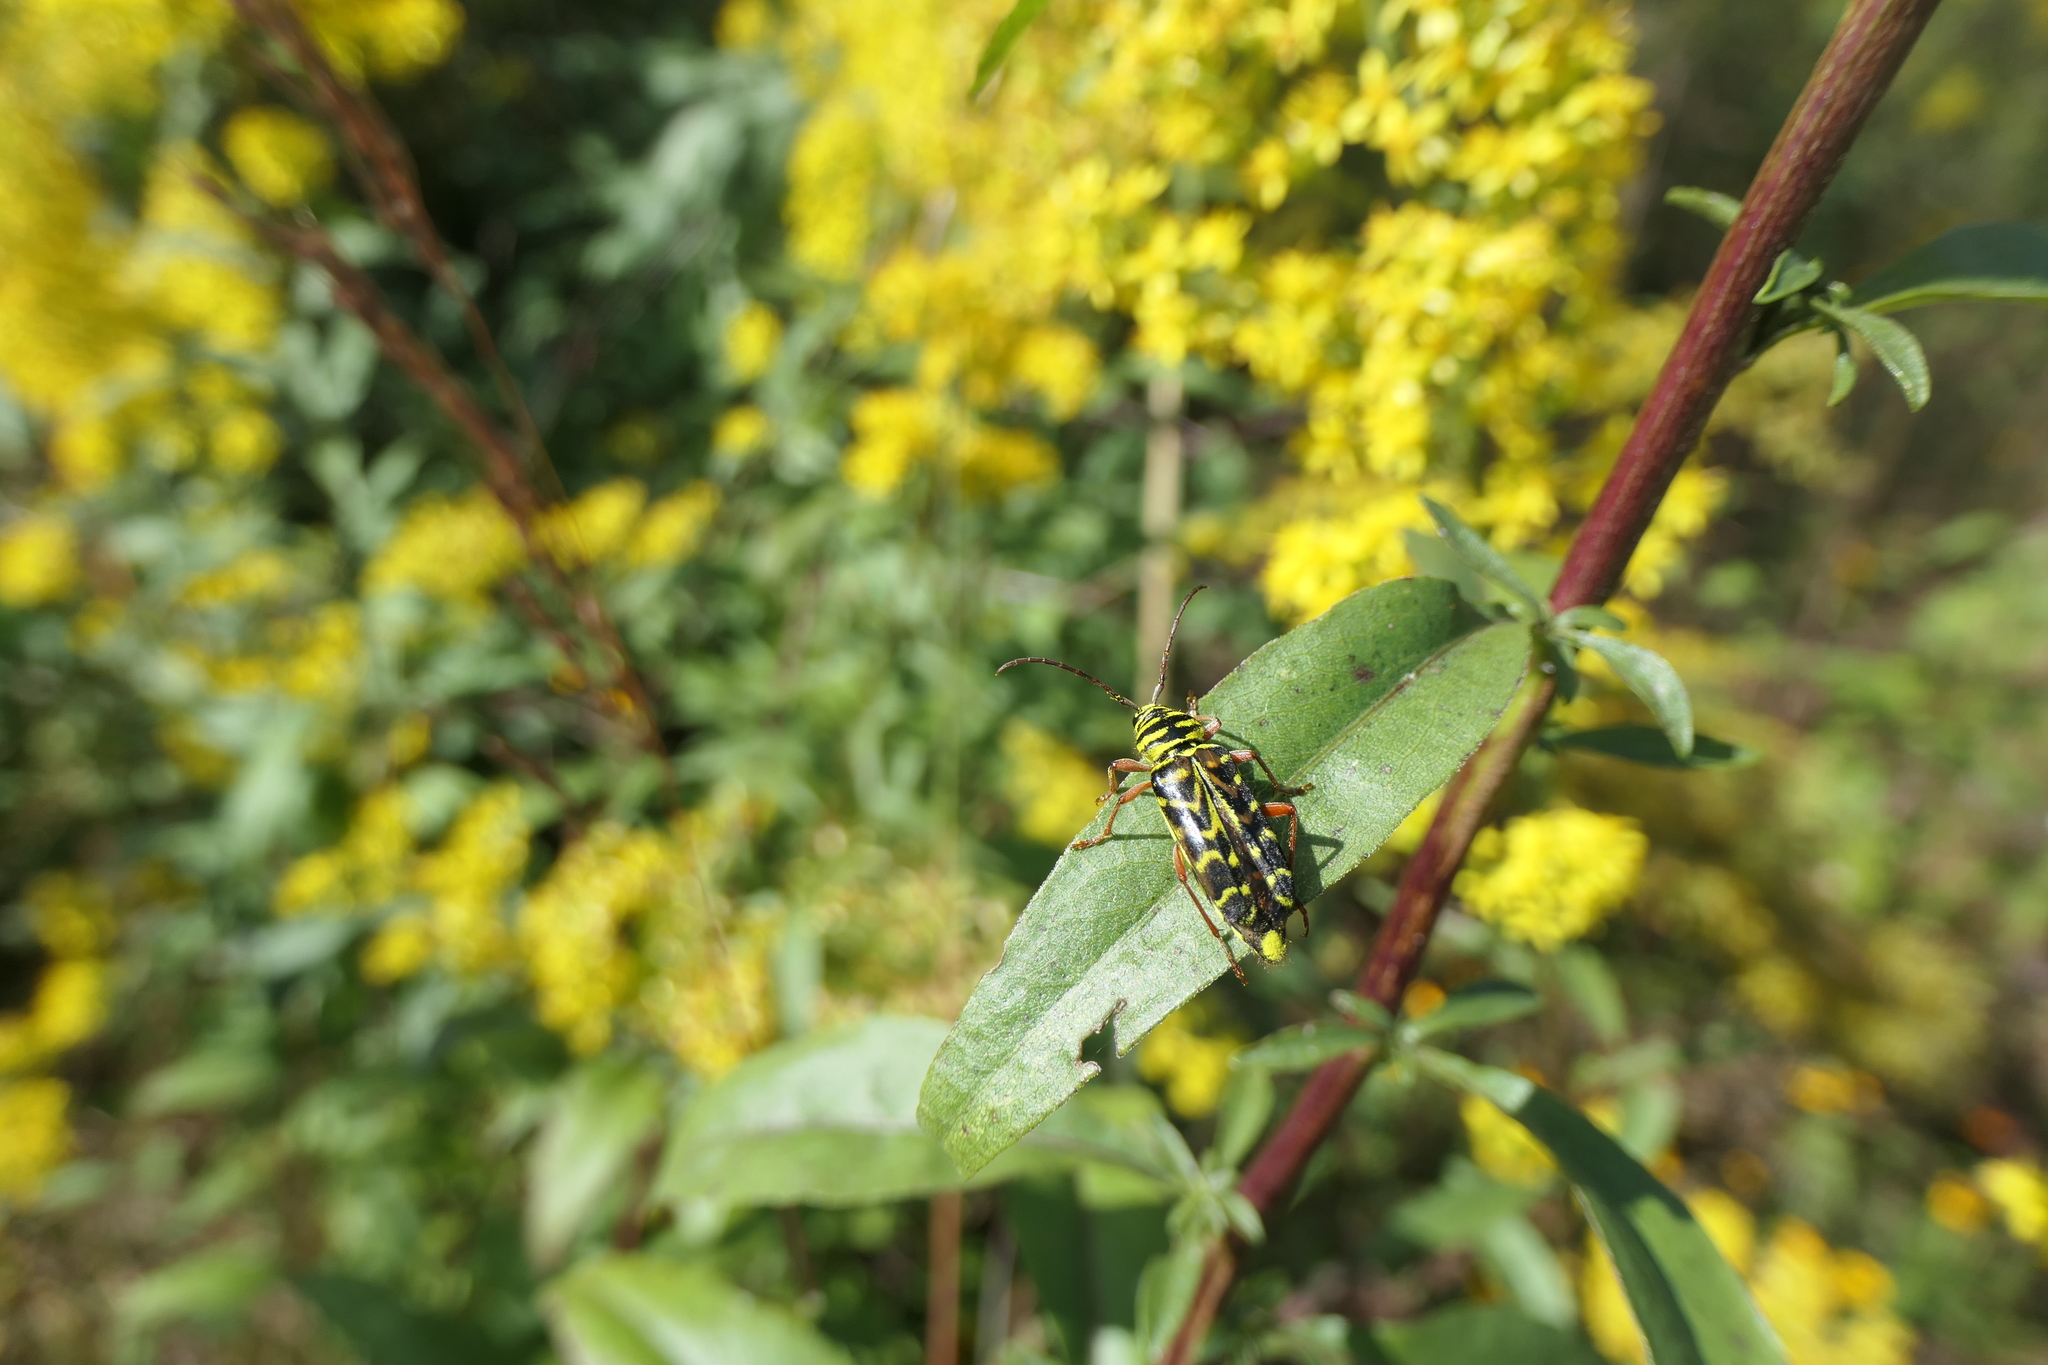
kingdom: Animalia
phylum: Arthropoda
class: Insecta
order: Coleoptera
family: Cerambycidae
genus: Megacyllene
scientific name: Megacyllene robiniae
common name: Locust borer
